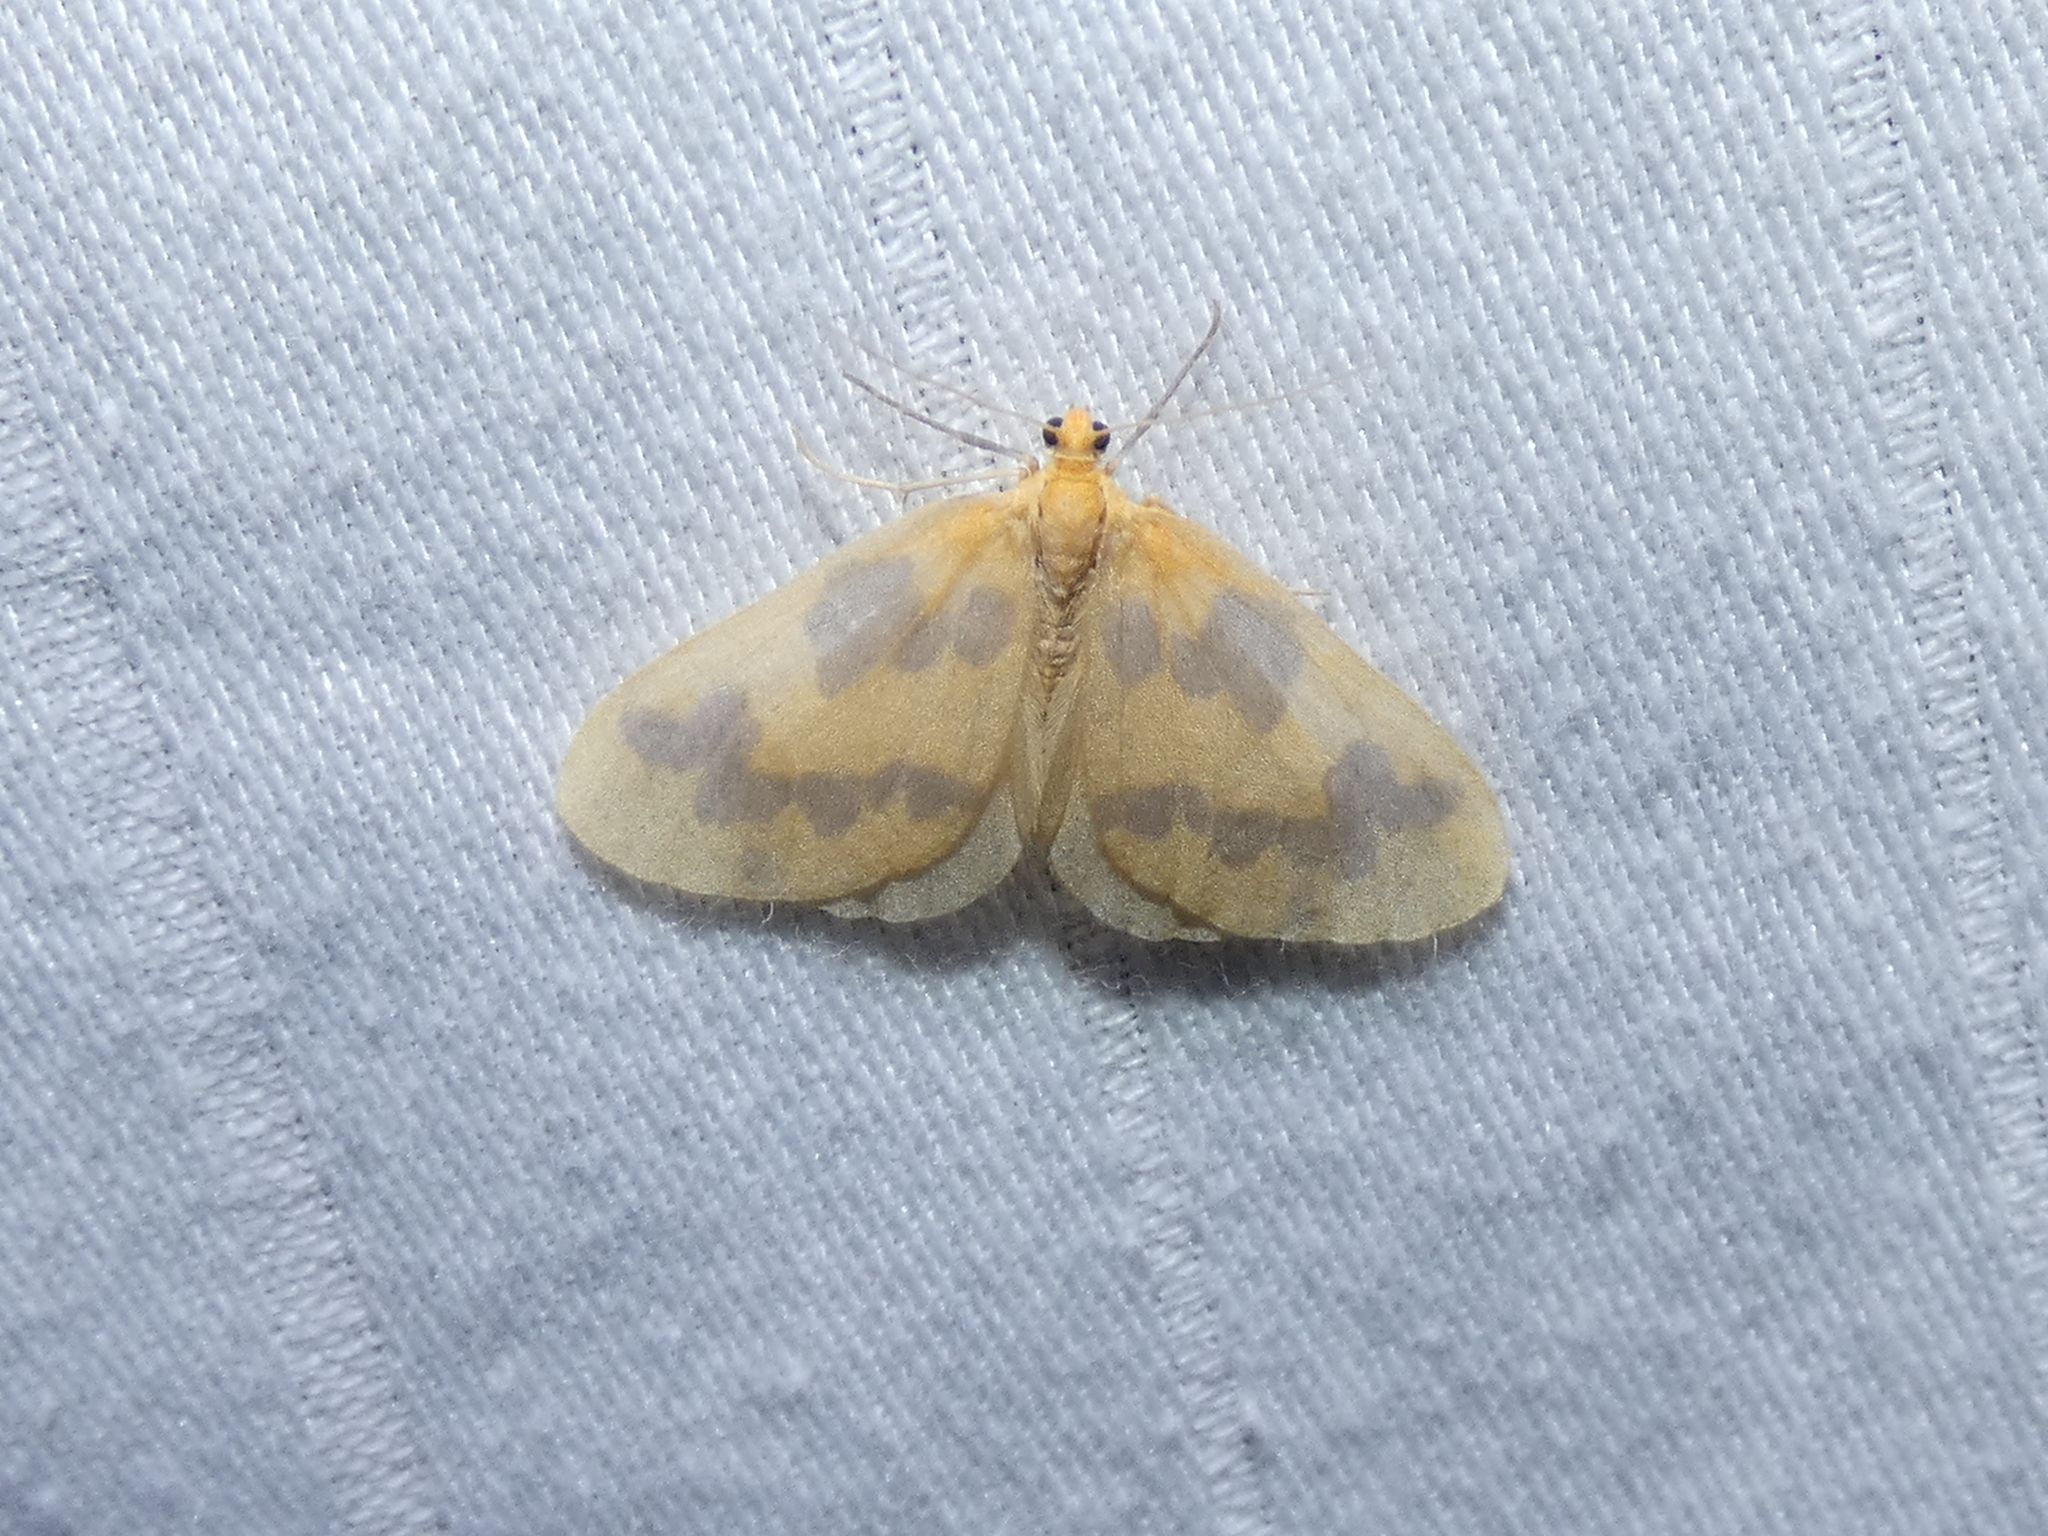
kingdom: Animalia
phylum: Arthropoda
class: Insecta
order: Lepidoptera
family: Geometridae
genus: Eubaphe
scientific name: Eubaphe mendica
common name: Beggar
